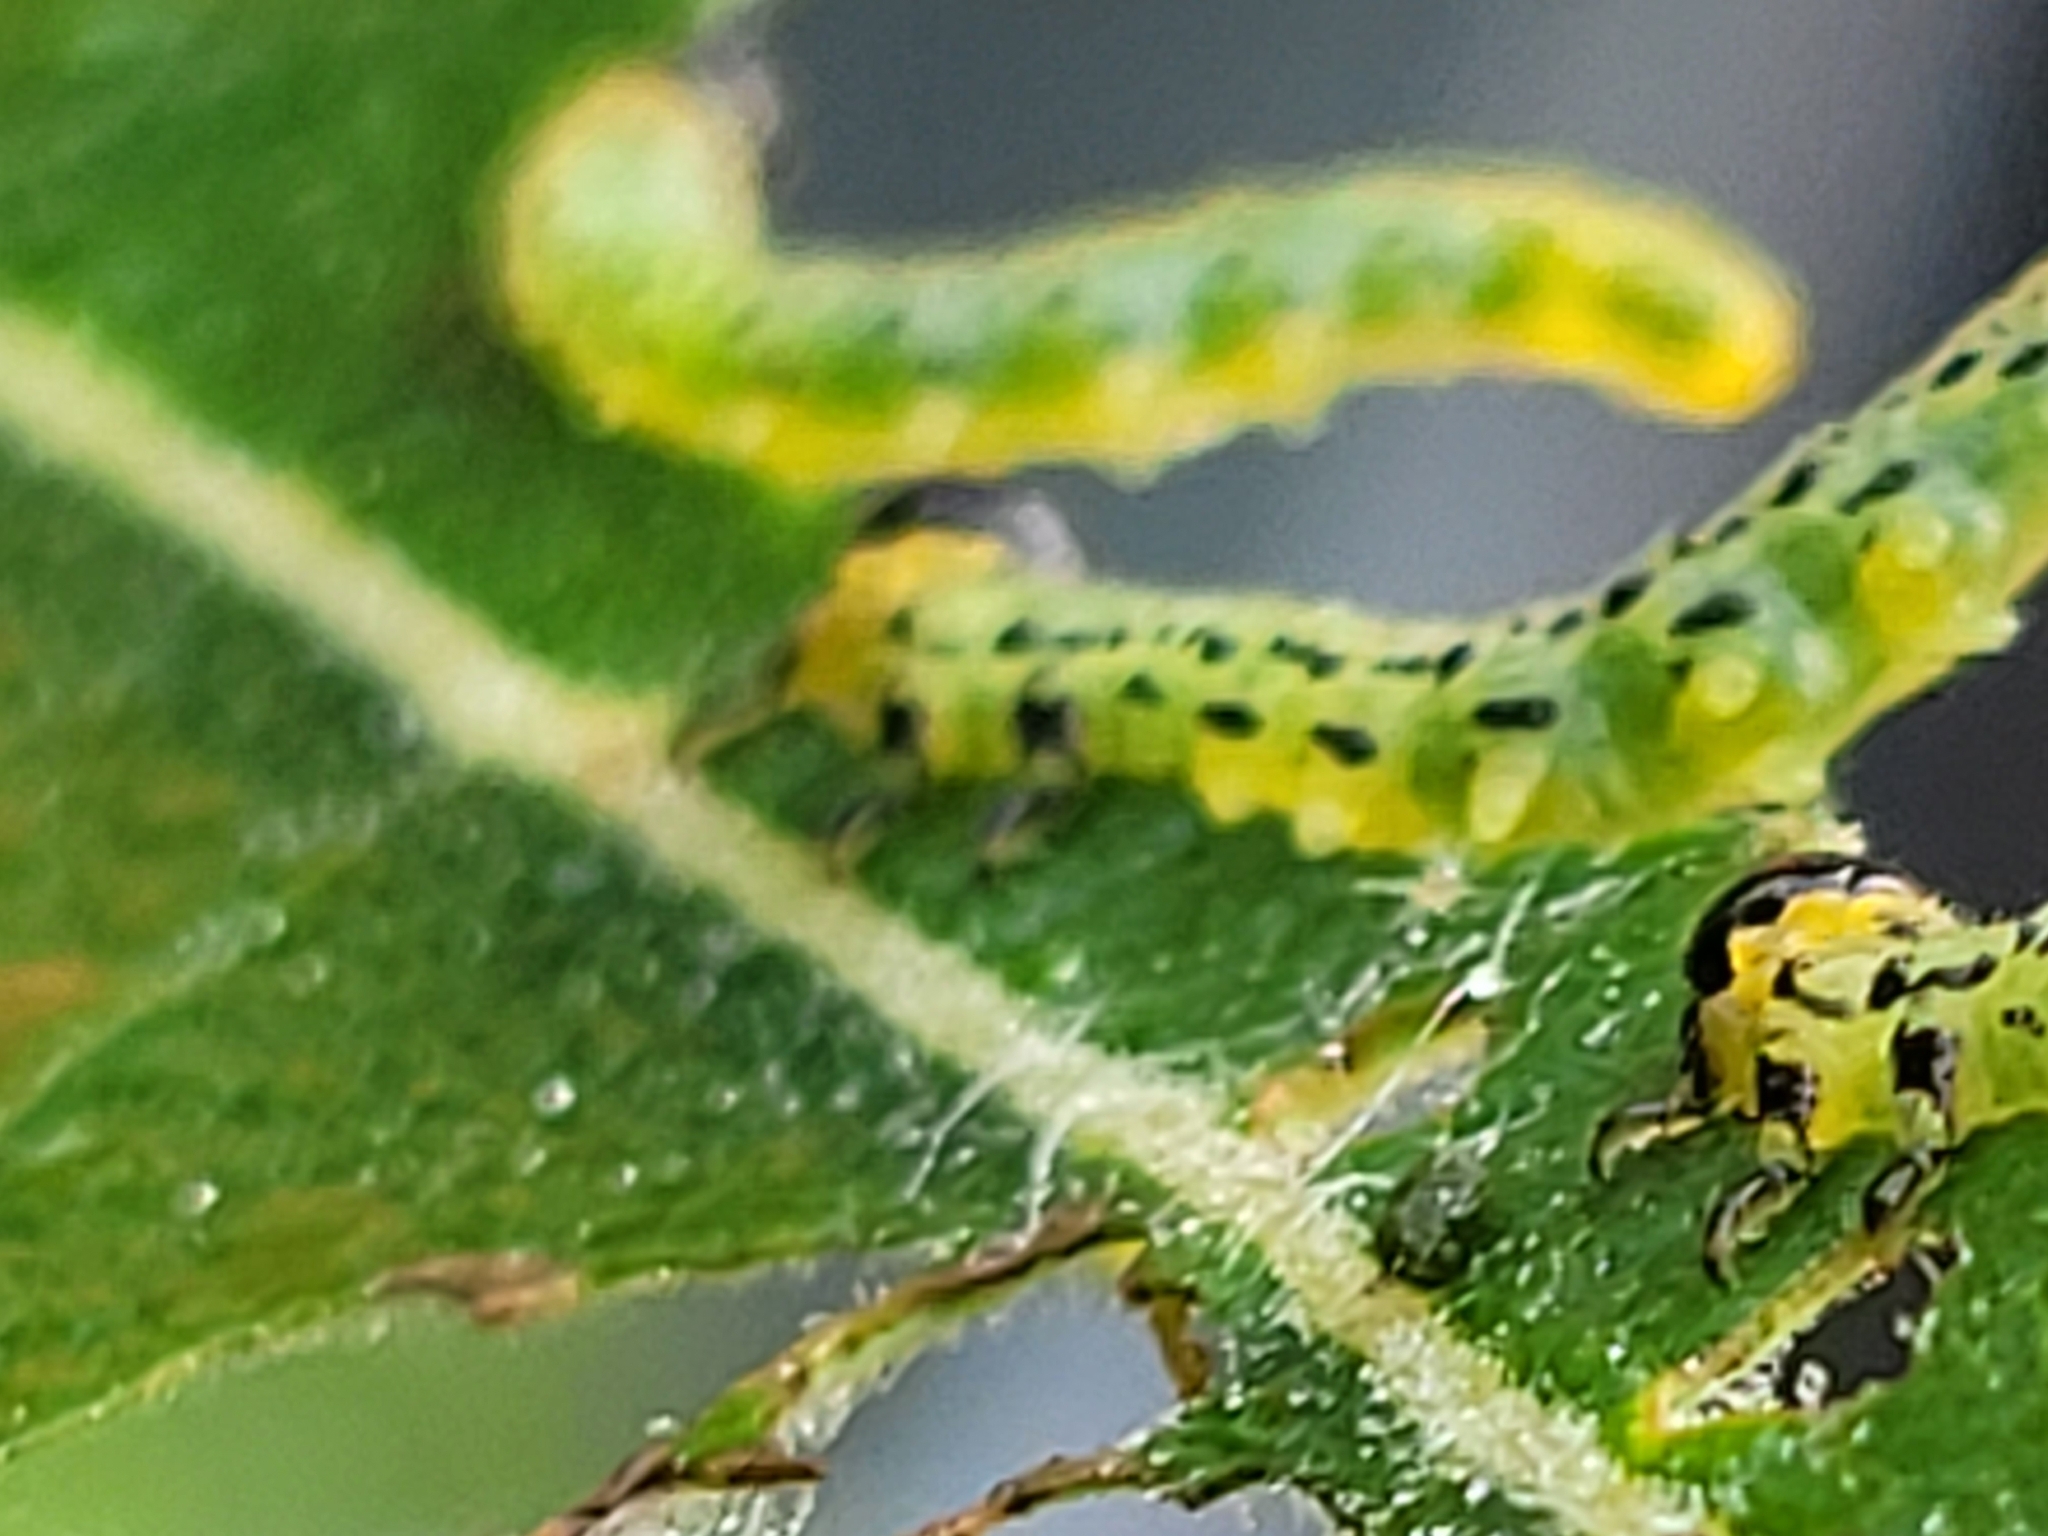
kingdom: Animalia
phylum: Arthropoda
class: Insecta
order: Hymenoptera
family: Tenthredinidae
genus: Nematus
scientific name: Nematus pavidus
